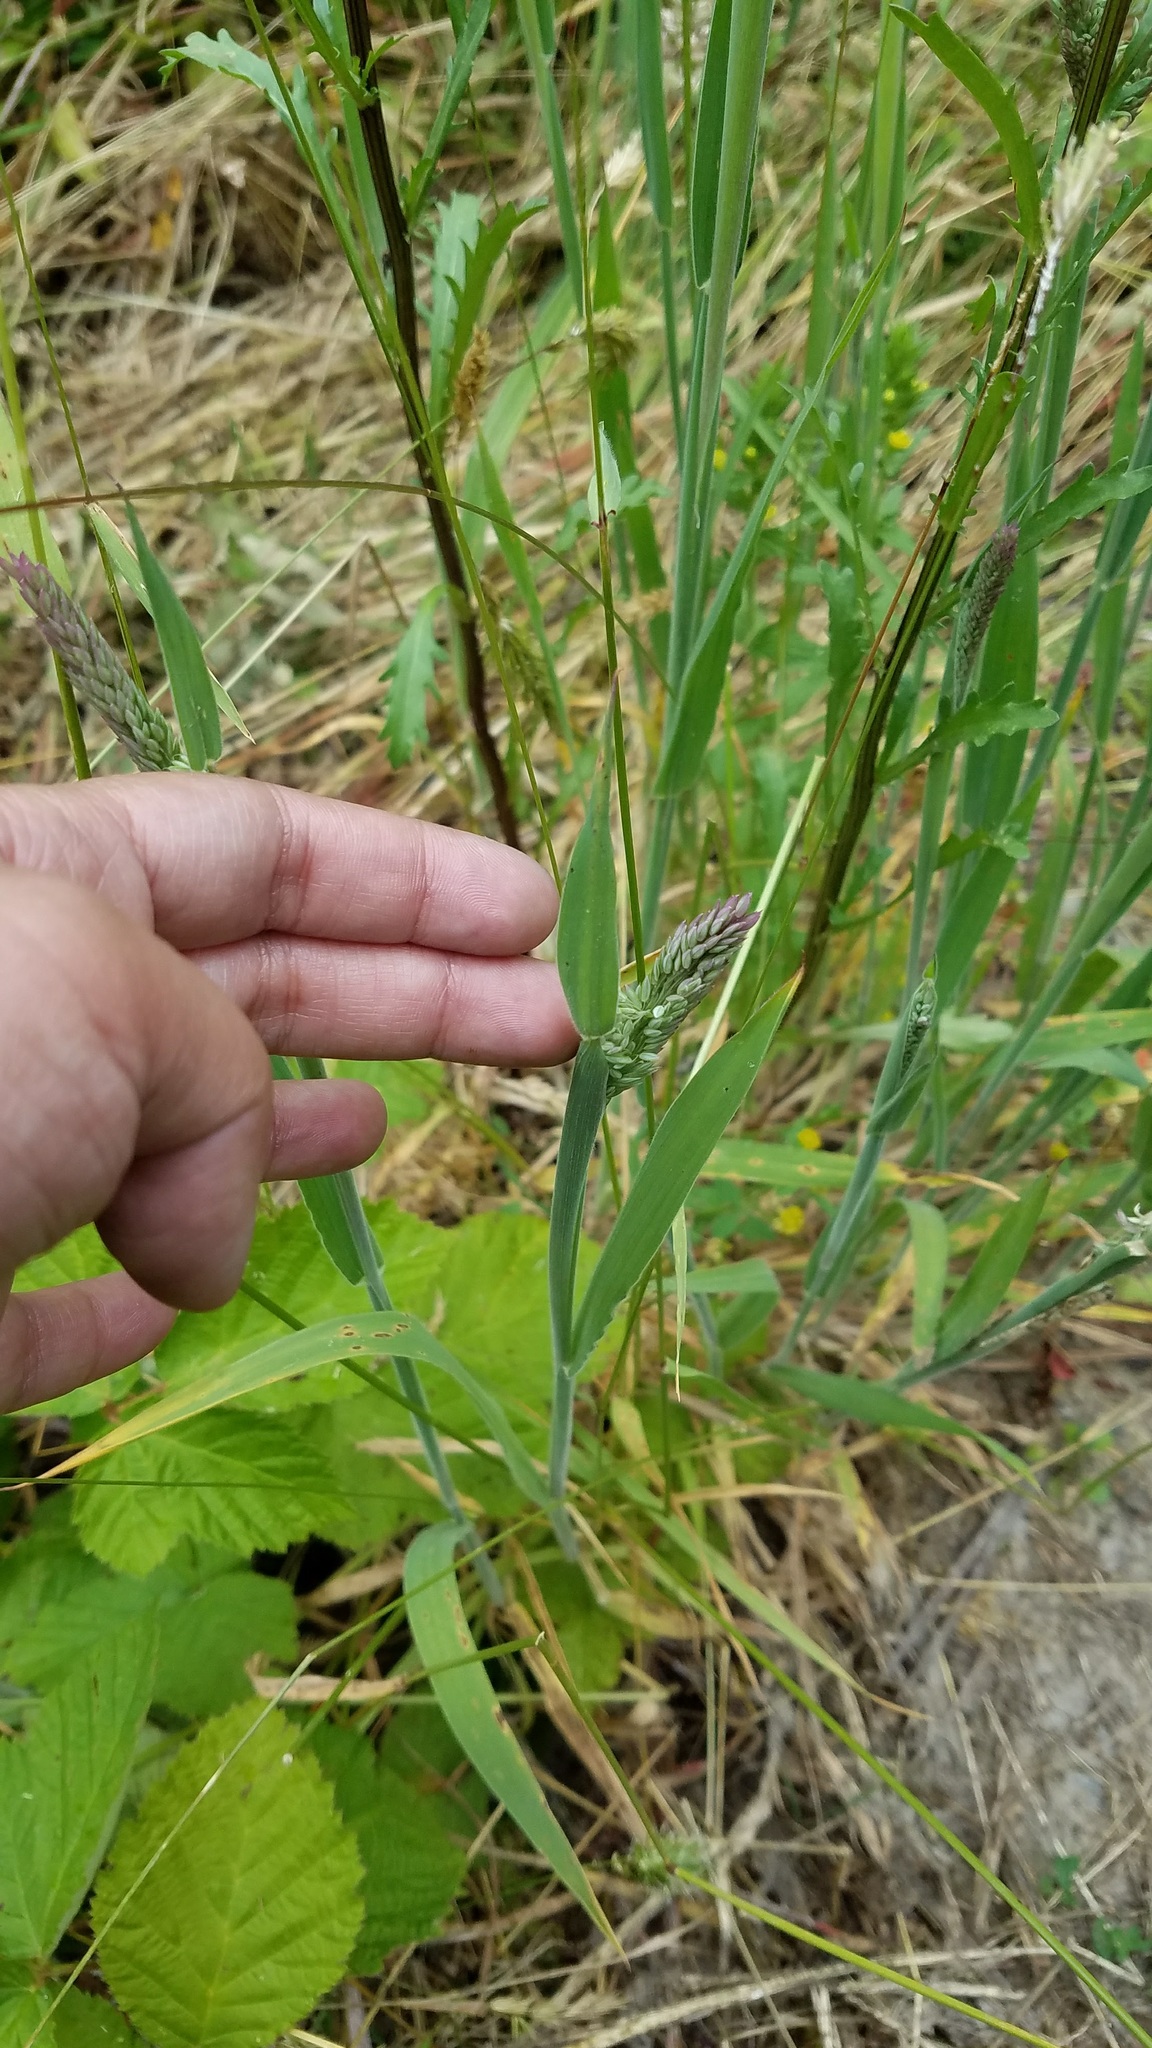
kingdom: Plantae
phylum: Tracheophyta
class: Liliopsida
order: Poales
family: Poaceae
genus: Holcus
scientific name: Holcus lanatus
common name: Yorkshire-fog
